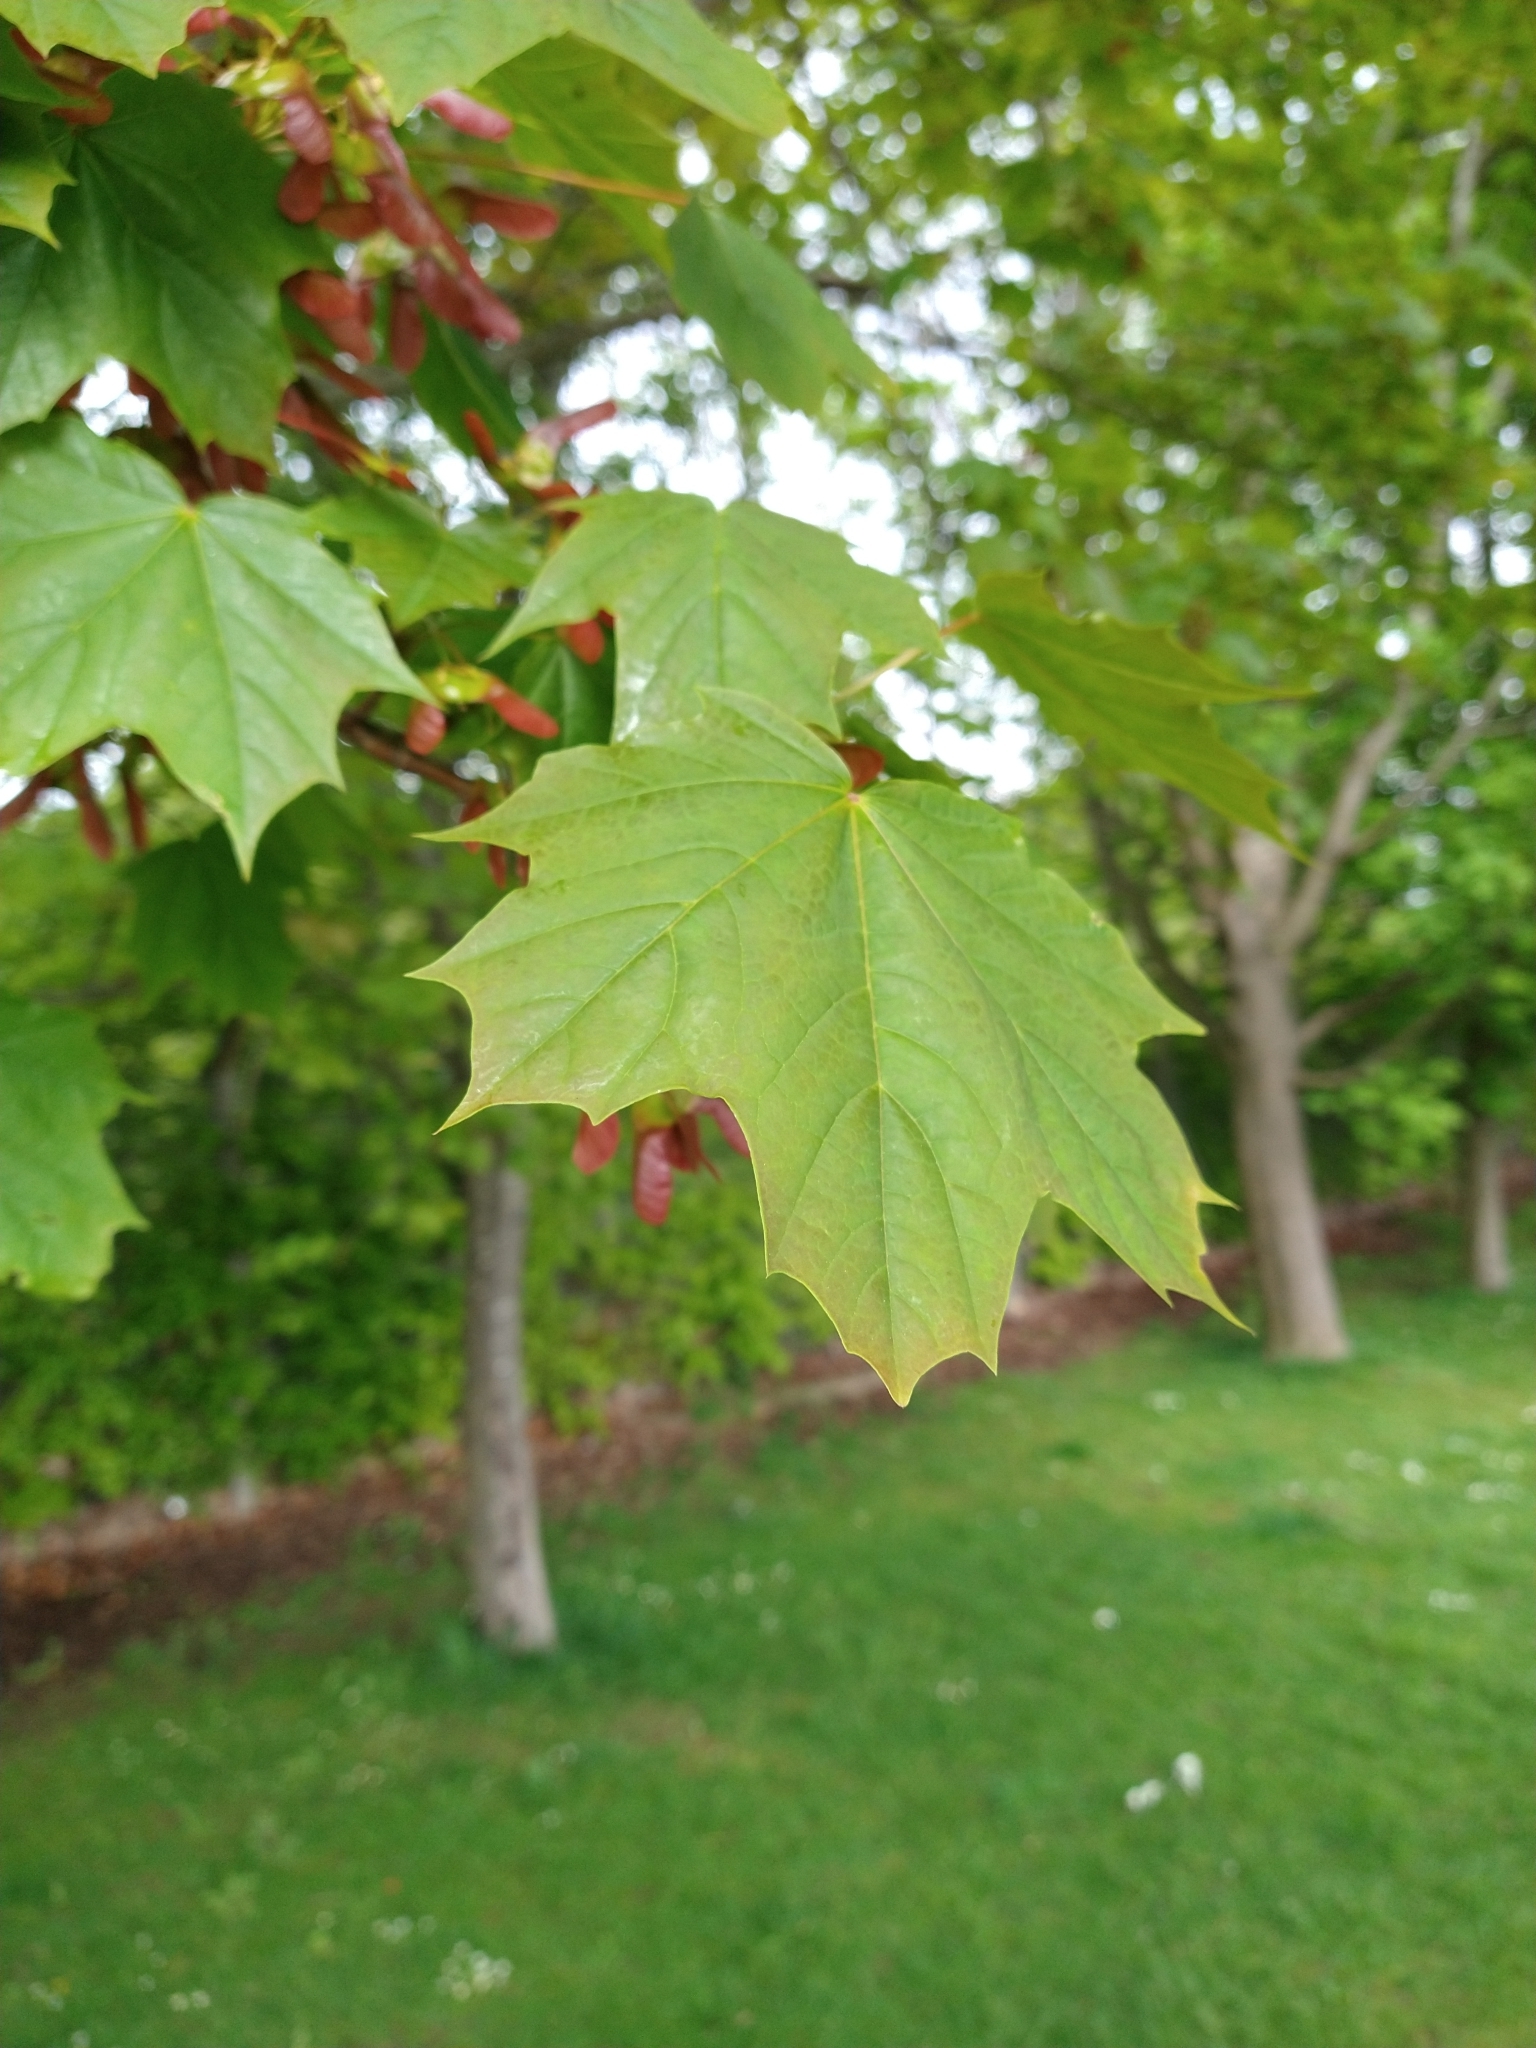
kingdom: Plantae
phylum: Tracheophyta
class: Magnoliopsida
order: Sapindales
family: Sapindaceae
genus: Acer
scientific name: Acer platanoides
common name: Norway maple
